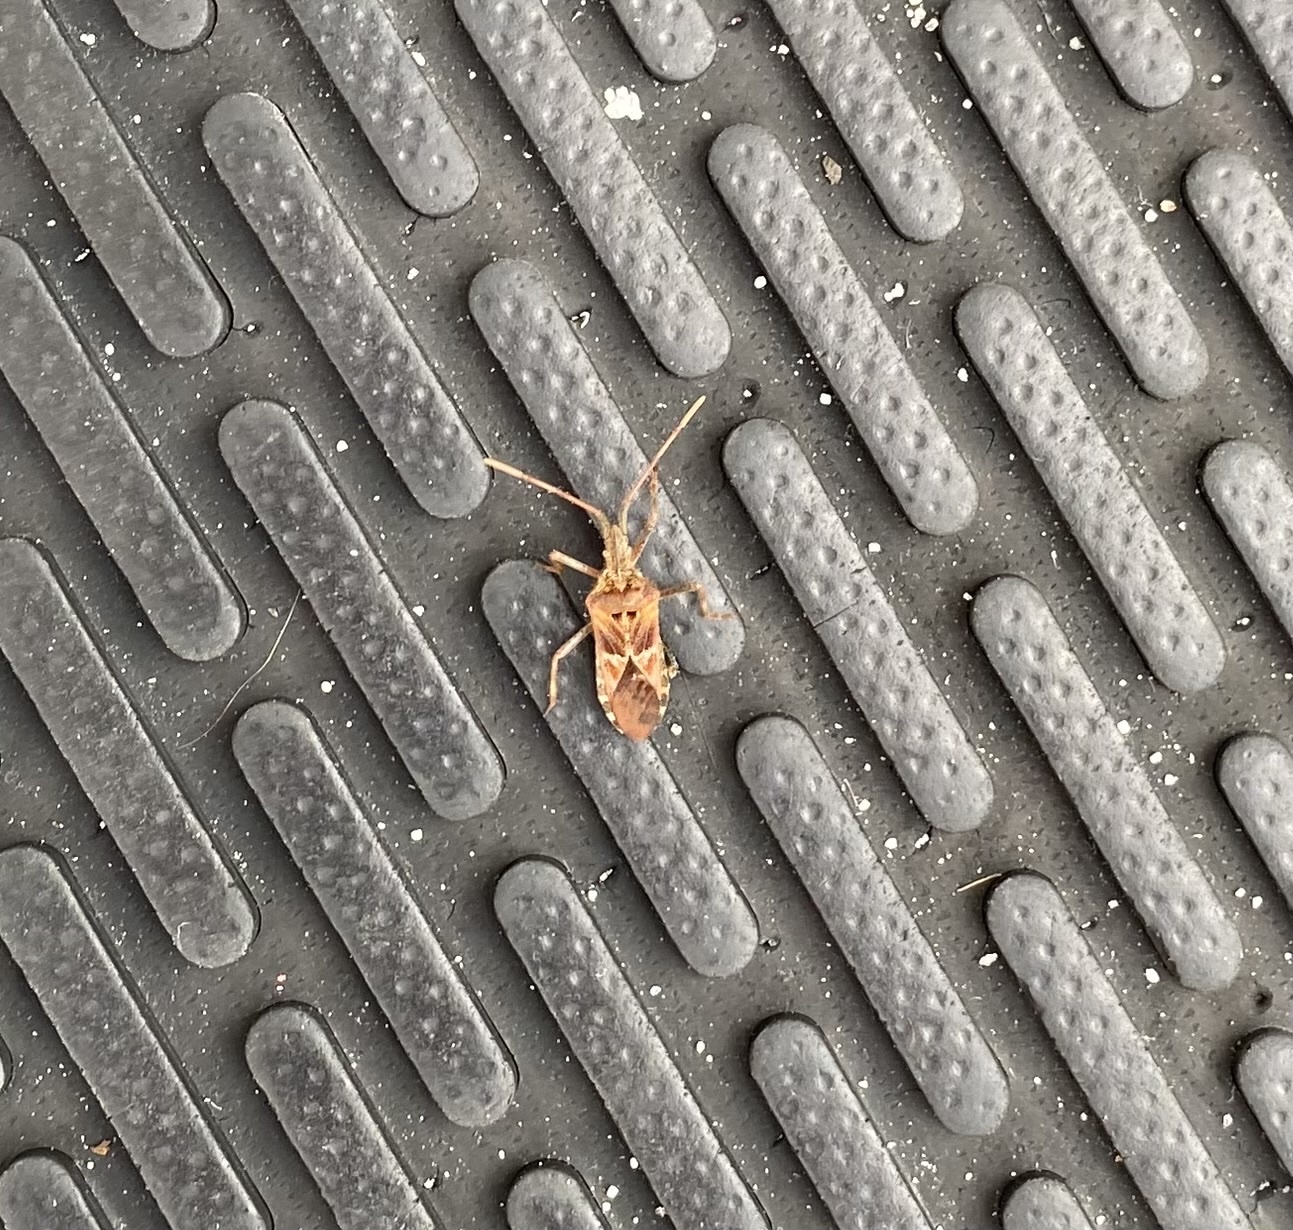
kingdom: Animalia
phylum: Arthropoda
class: Insecta
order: Hemiptera
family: Coreidae
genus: Leptoglossus
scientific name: Leptoglossus occidentalis
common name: Western conifer-seed bug
